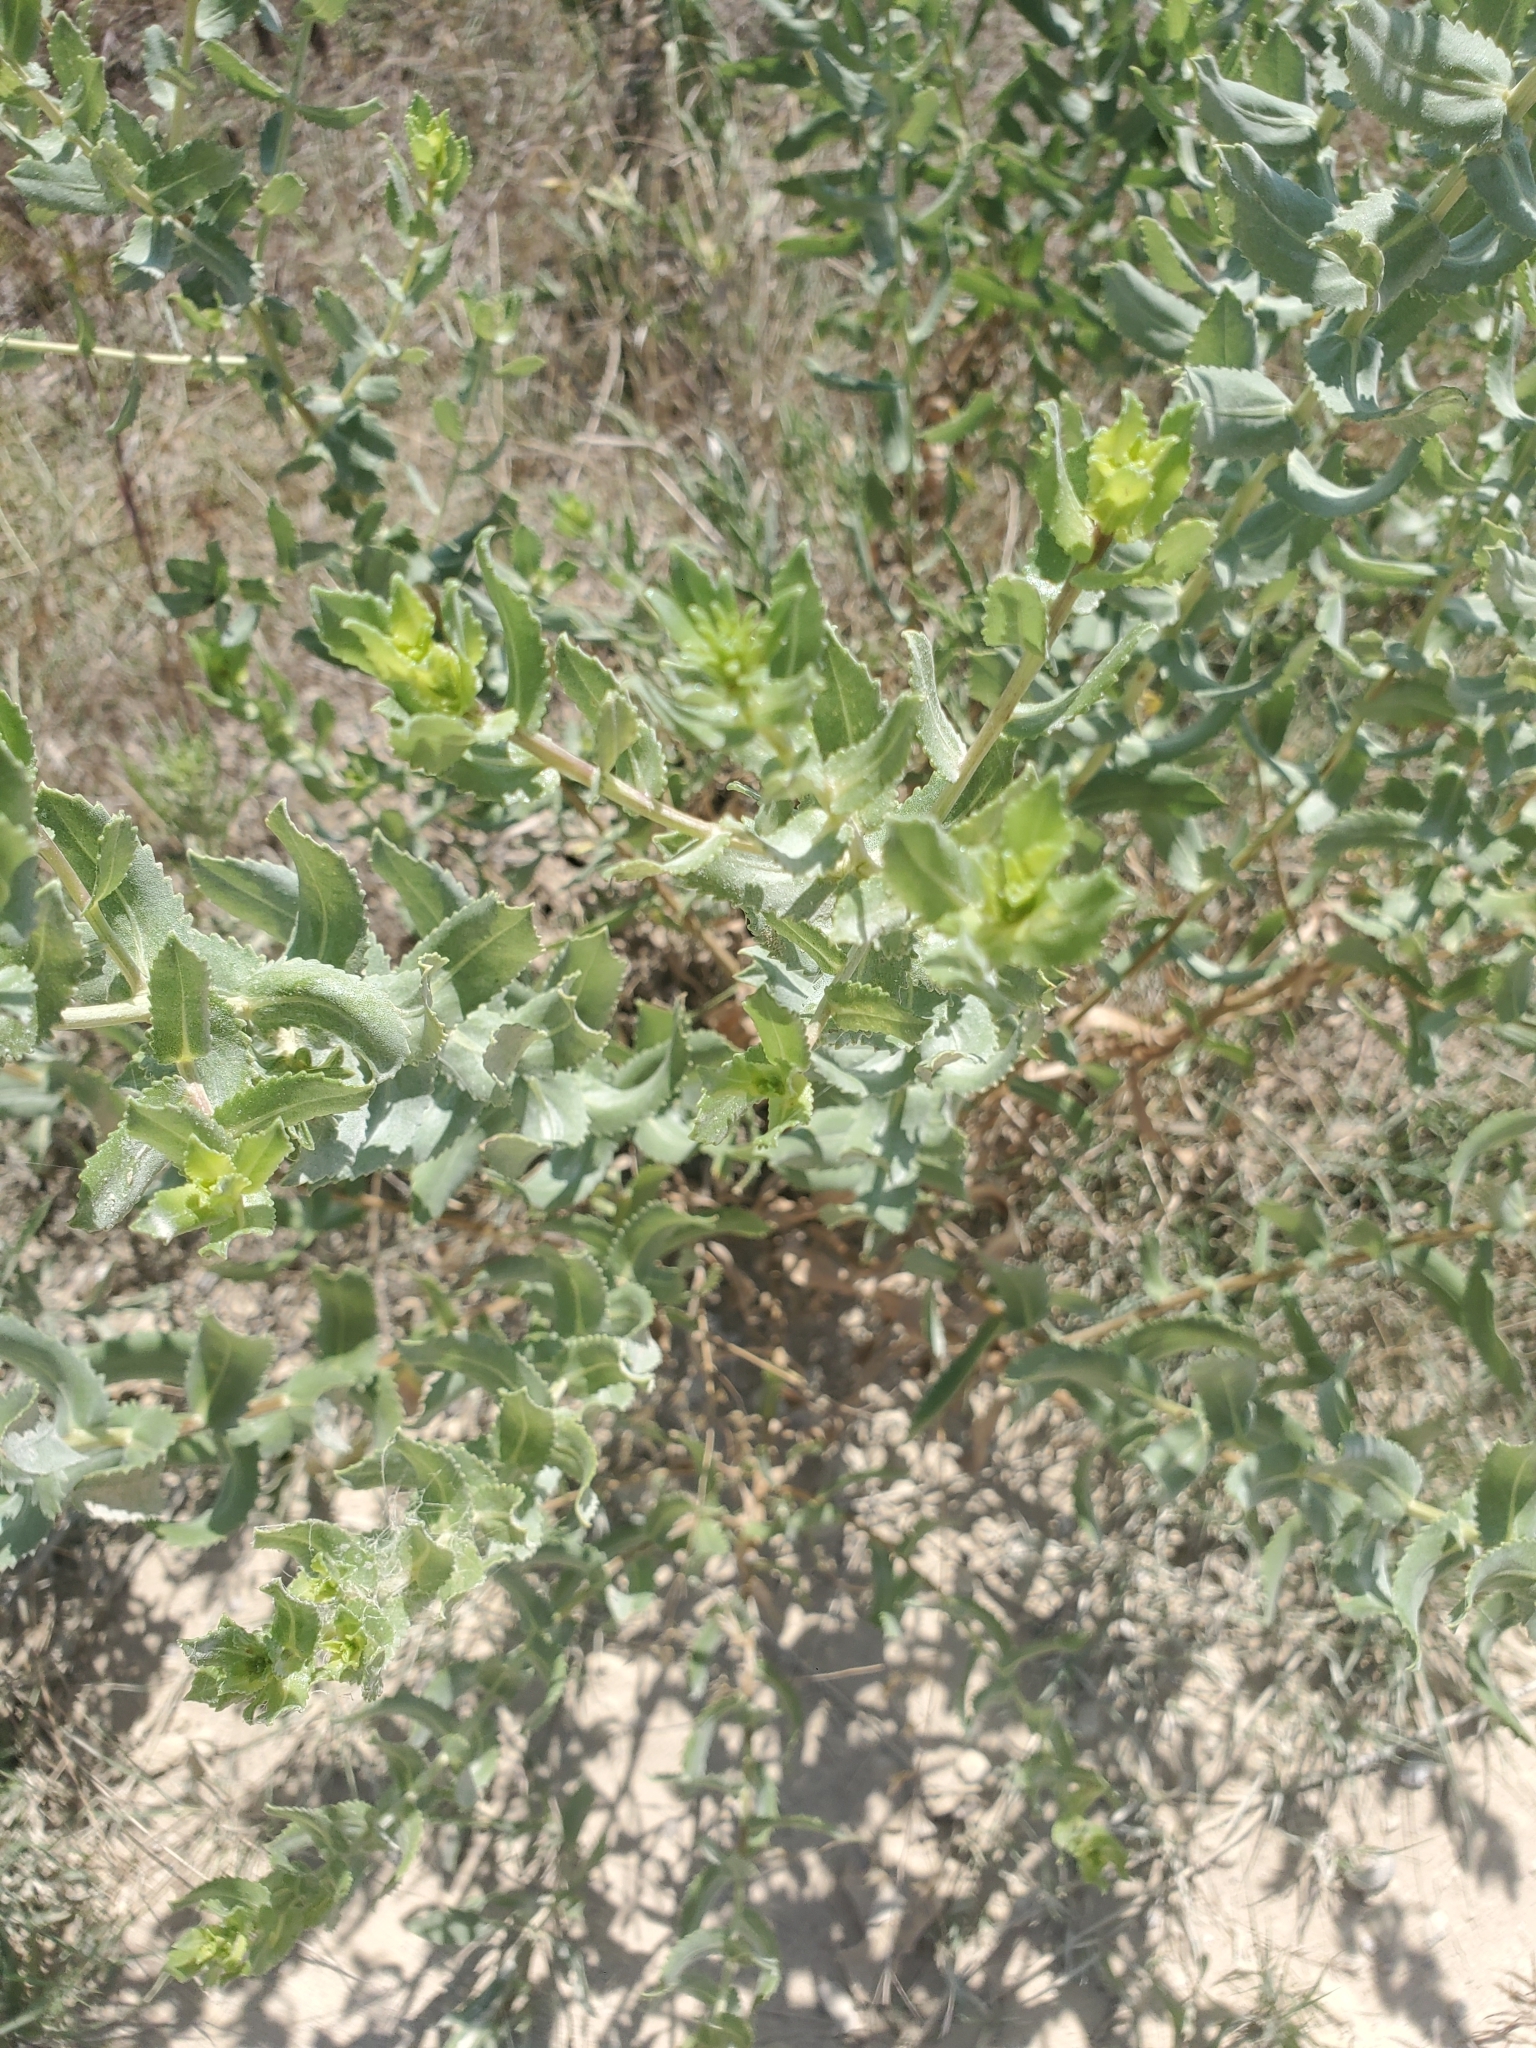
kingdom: Plantae
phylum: Tracheophyta
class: Magnoliopsida
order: Asterales
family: Asteraceae
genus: Grindelia
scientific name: Grindelia nuda
